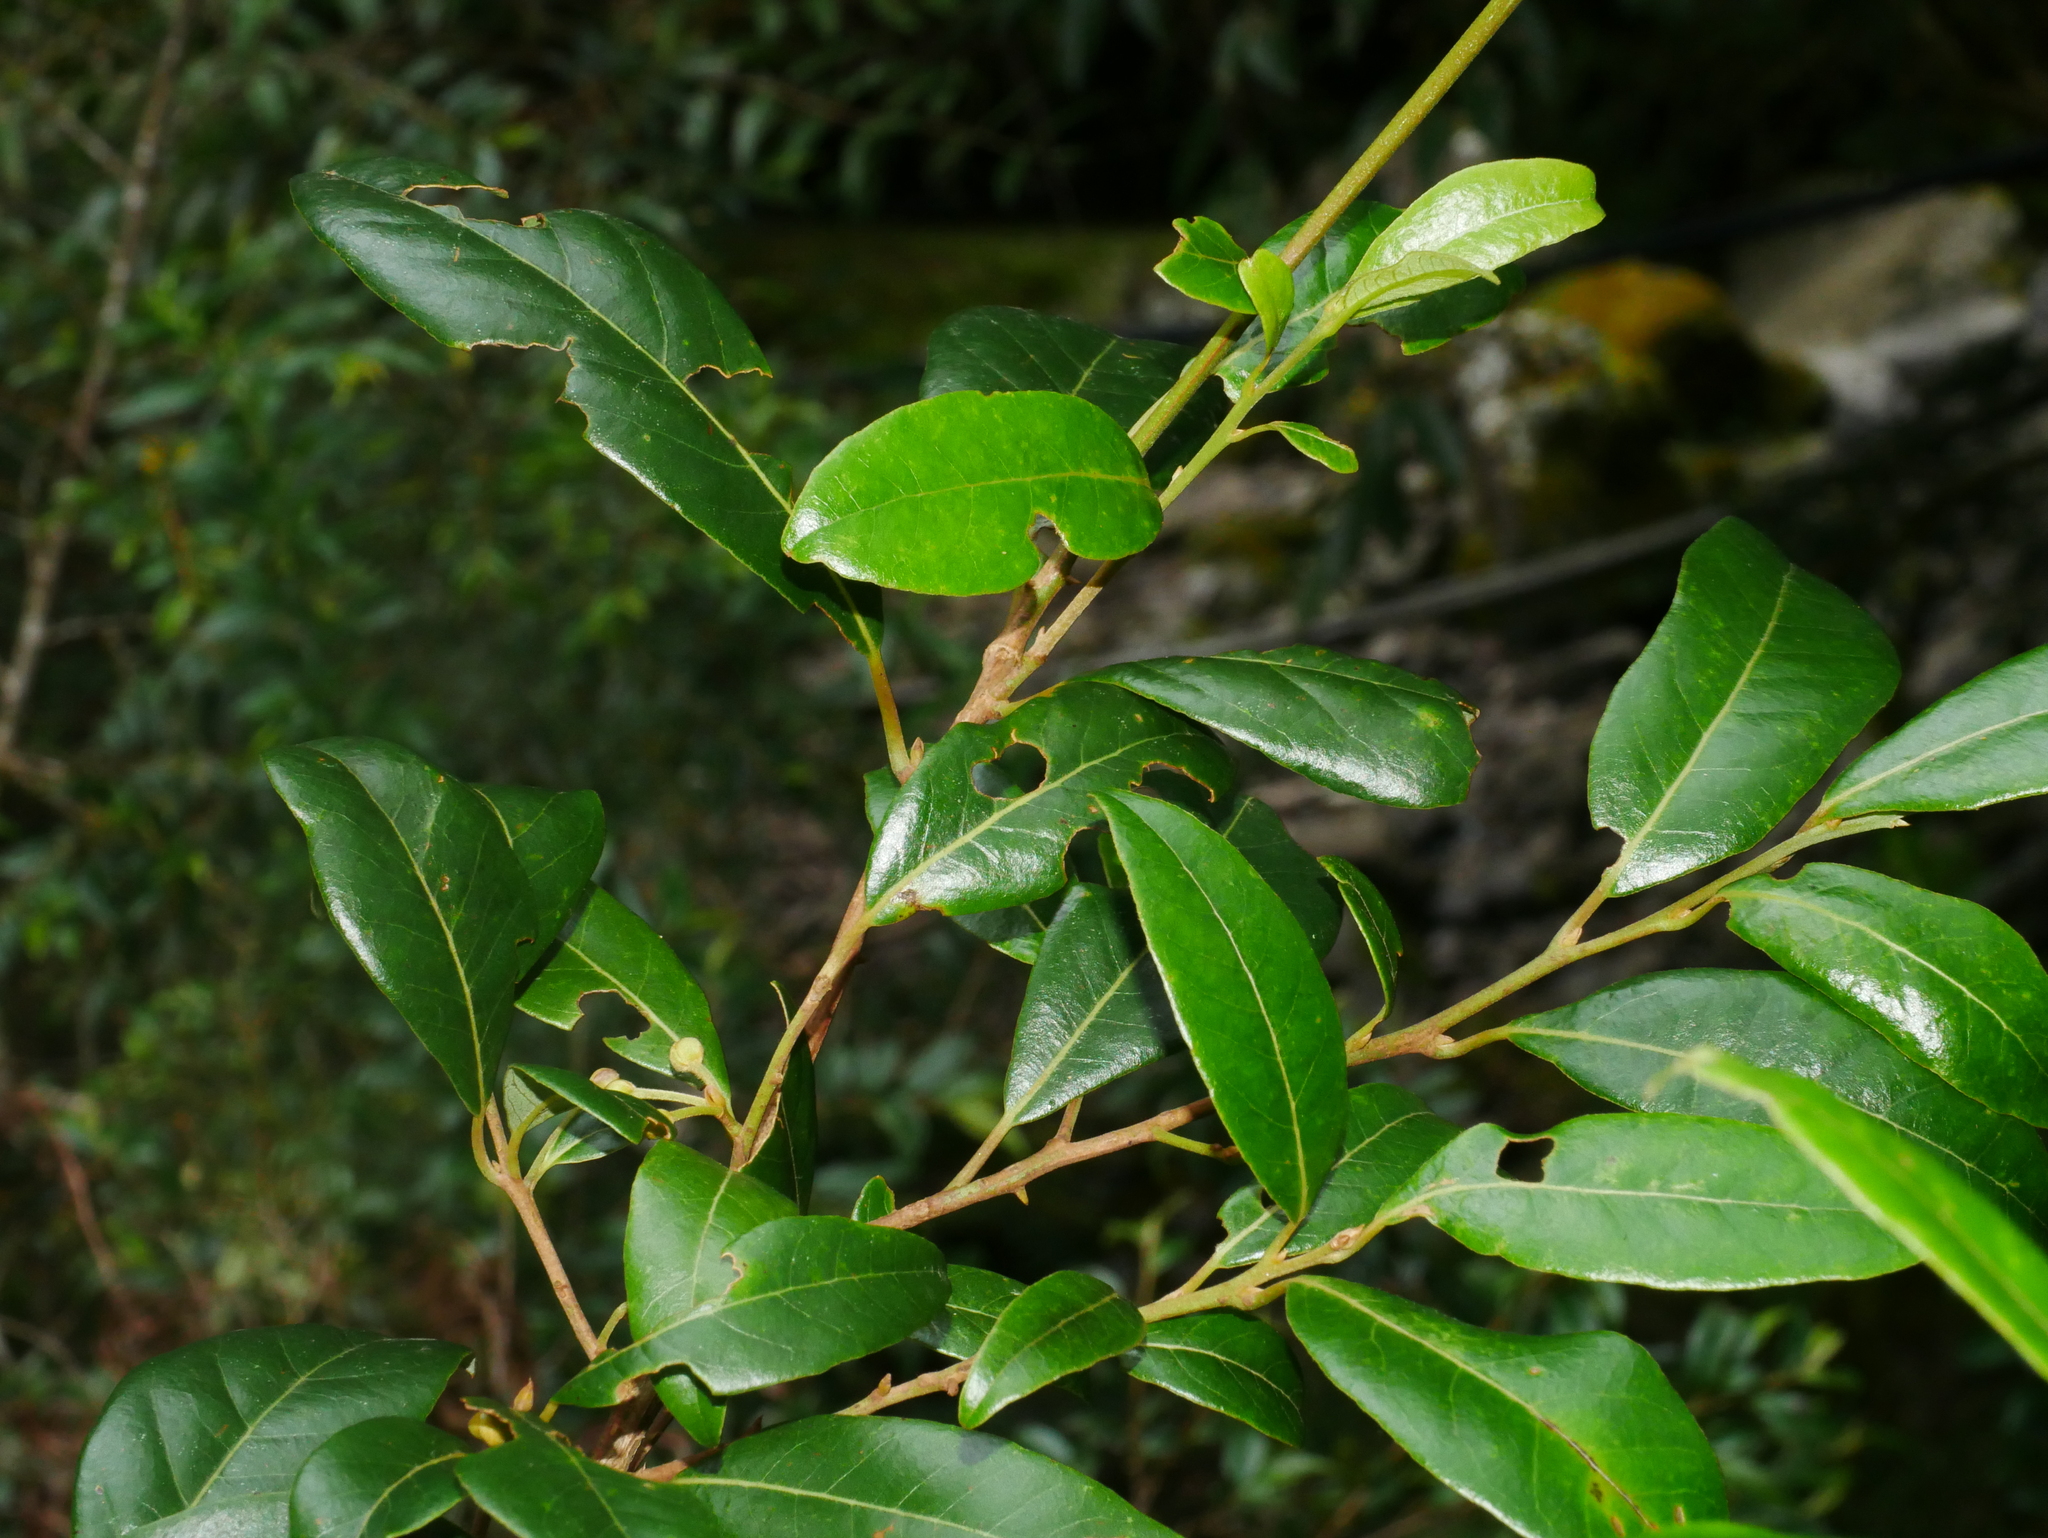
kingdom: Plantae
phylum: Tracheophyta
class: Magnoliopsida
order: Laurales
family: Lauraceae
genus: Litsea
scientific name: Litsea morrisonensis
